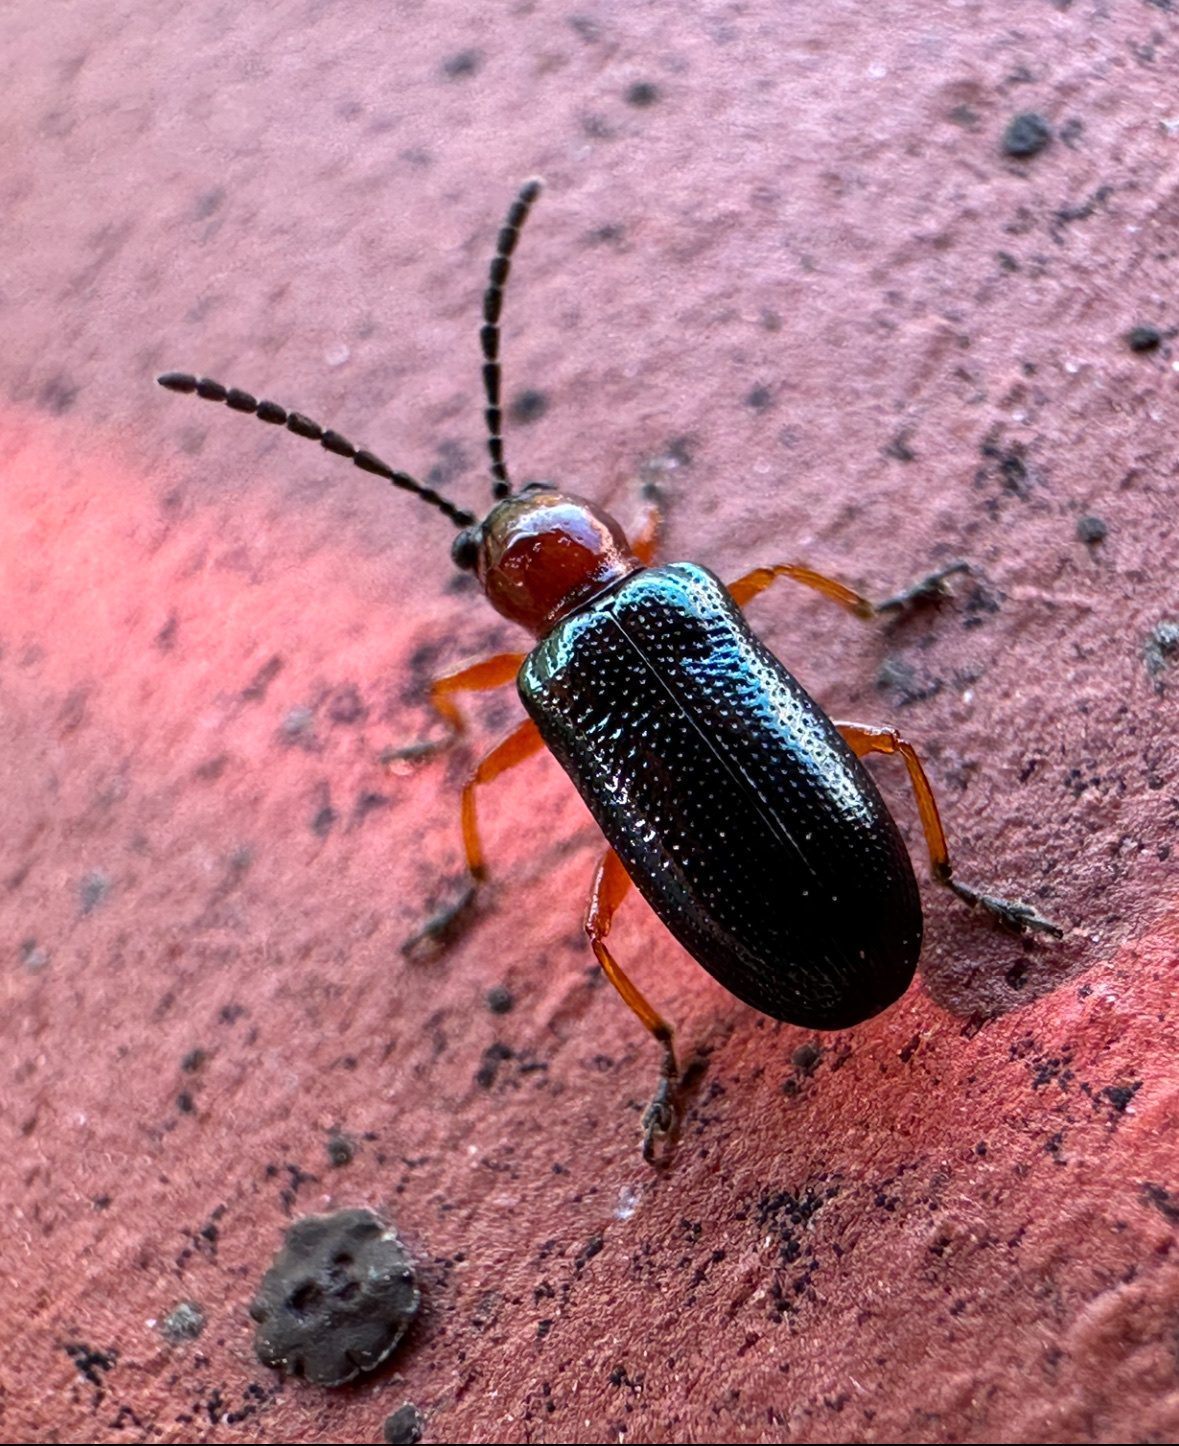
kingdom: Animalia
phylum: Arthropoda
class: Insecta
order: Coleoptera
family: Chrysomelidae
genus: Oulema
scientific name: Oulema
